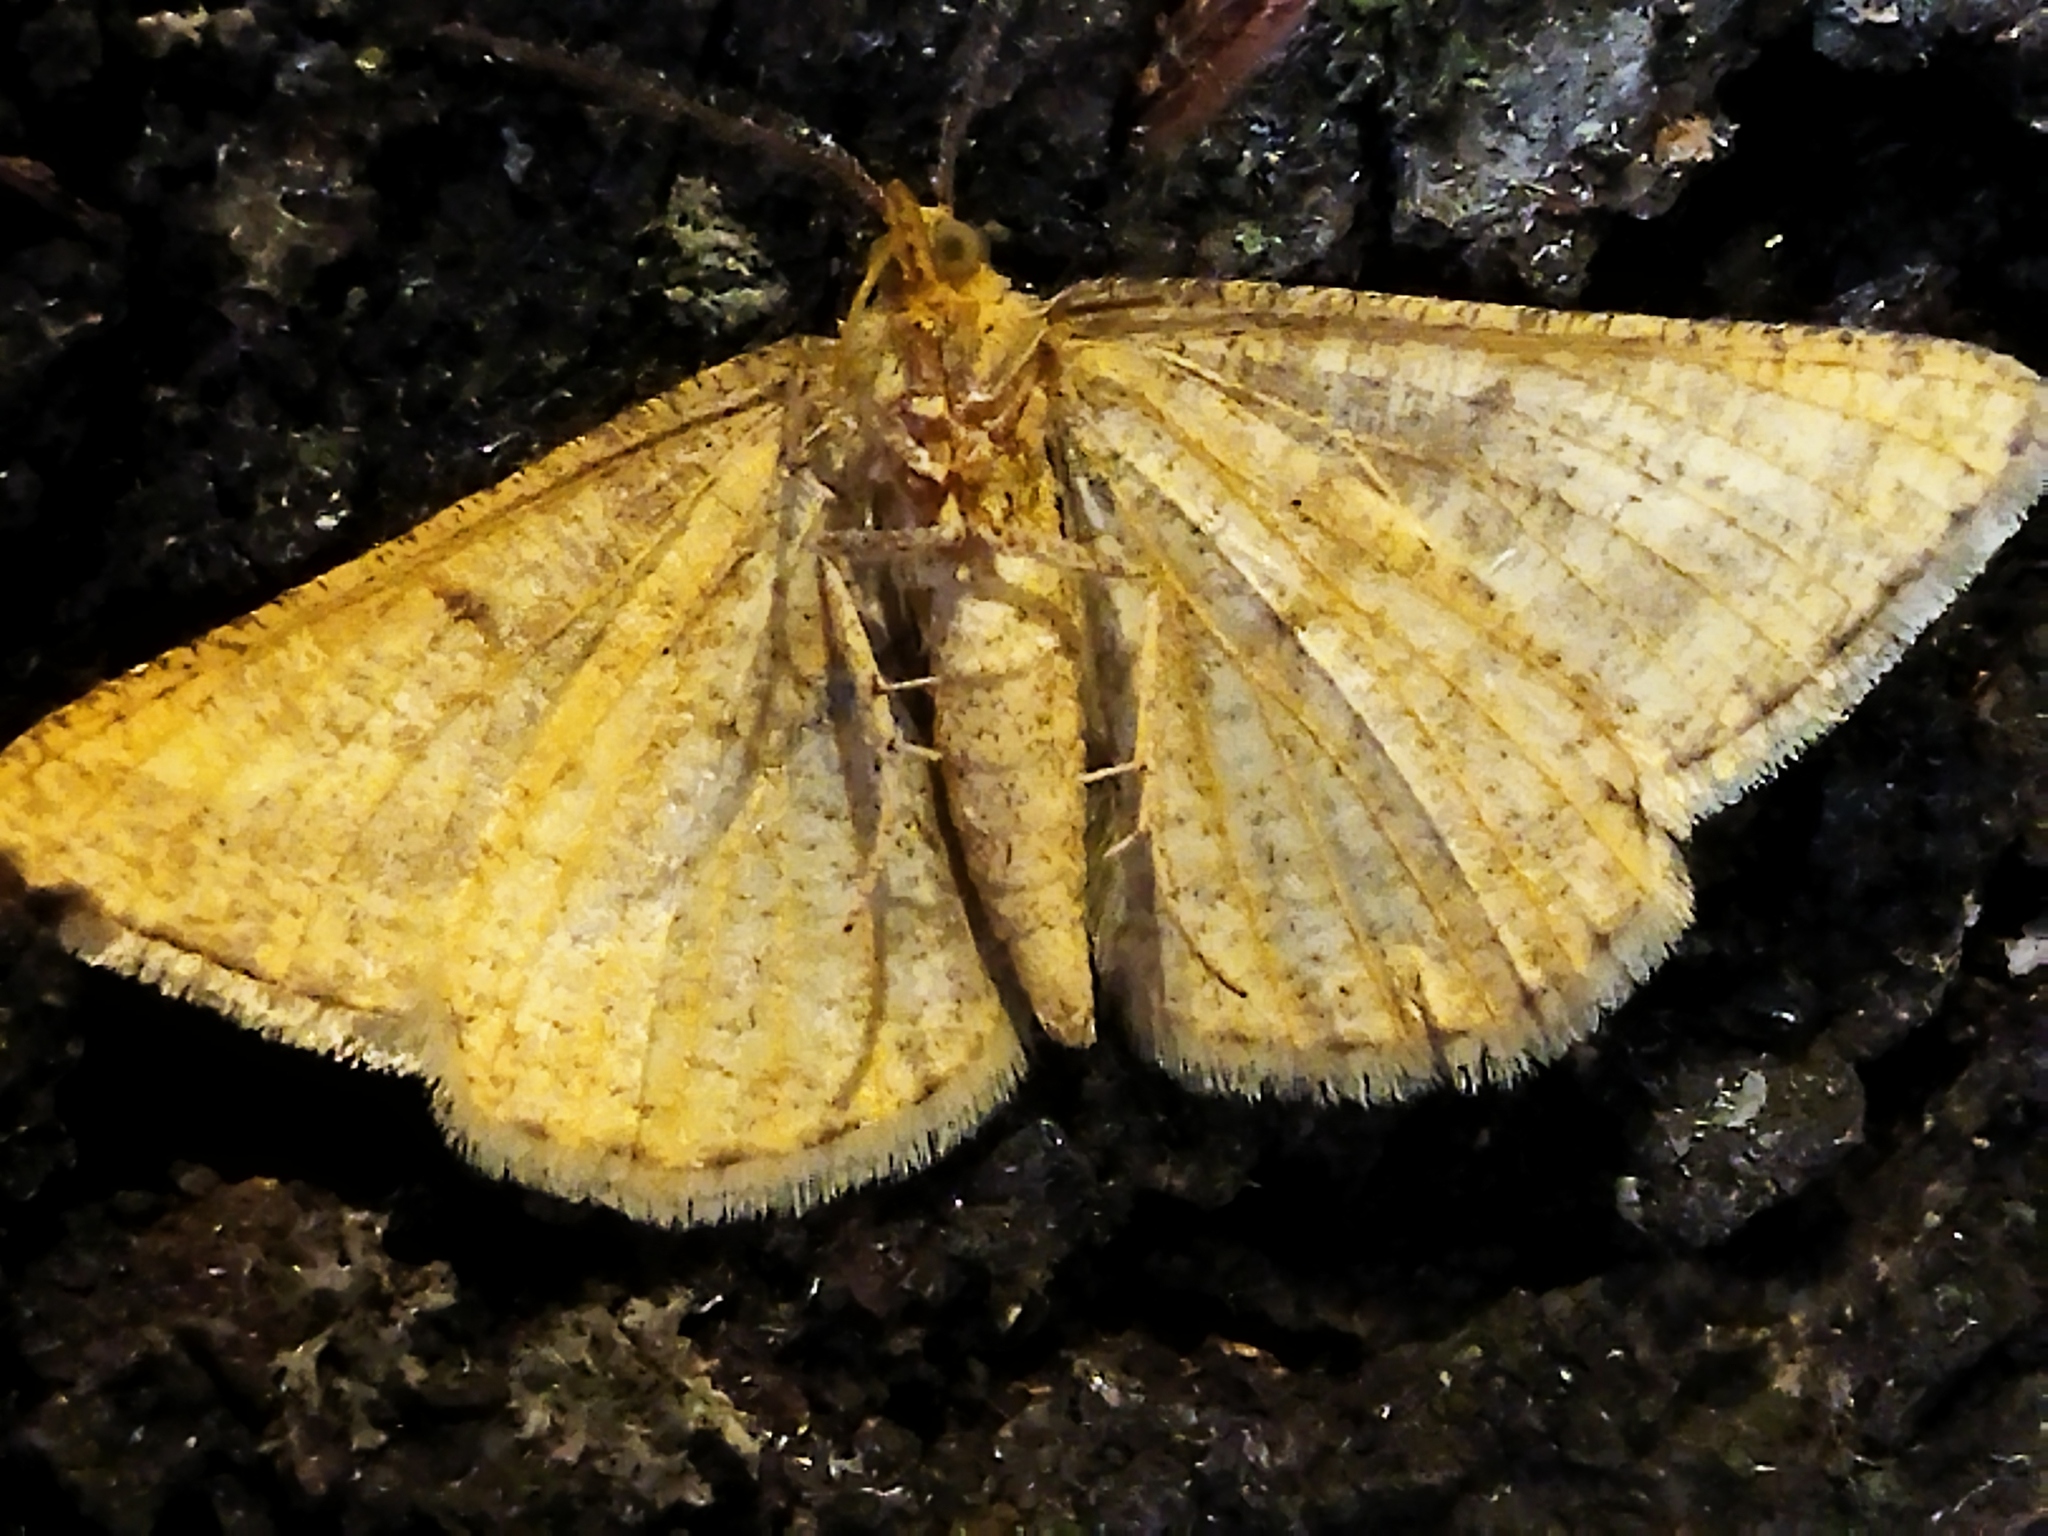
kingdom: Animalia
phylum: Arthropoda
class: Insecta
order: Lepidoptera
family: Geometridae
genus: Tephrina
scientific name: Tephrina arenacearia
